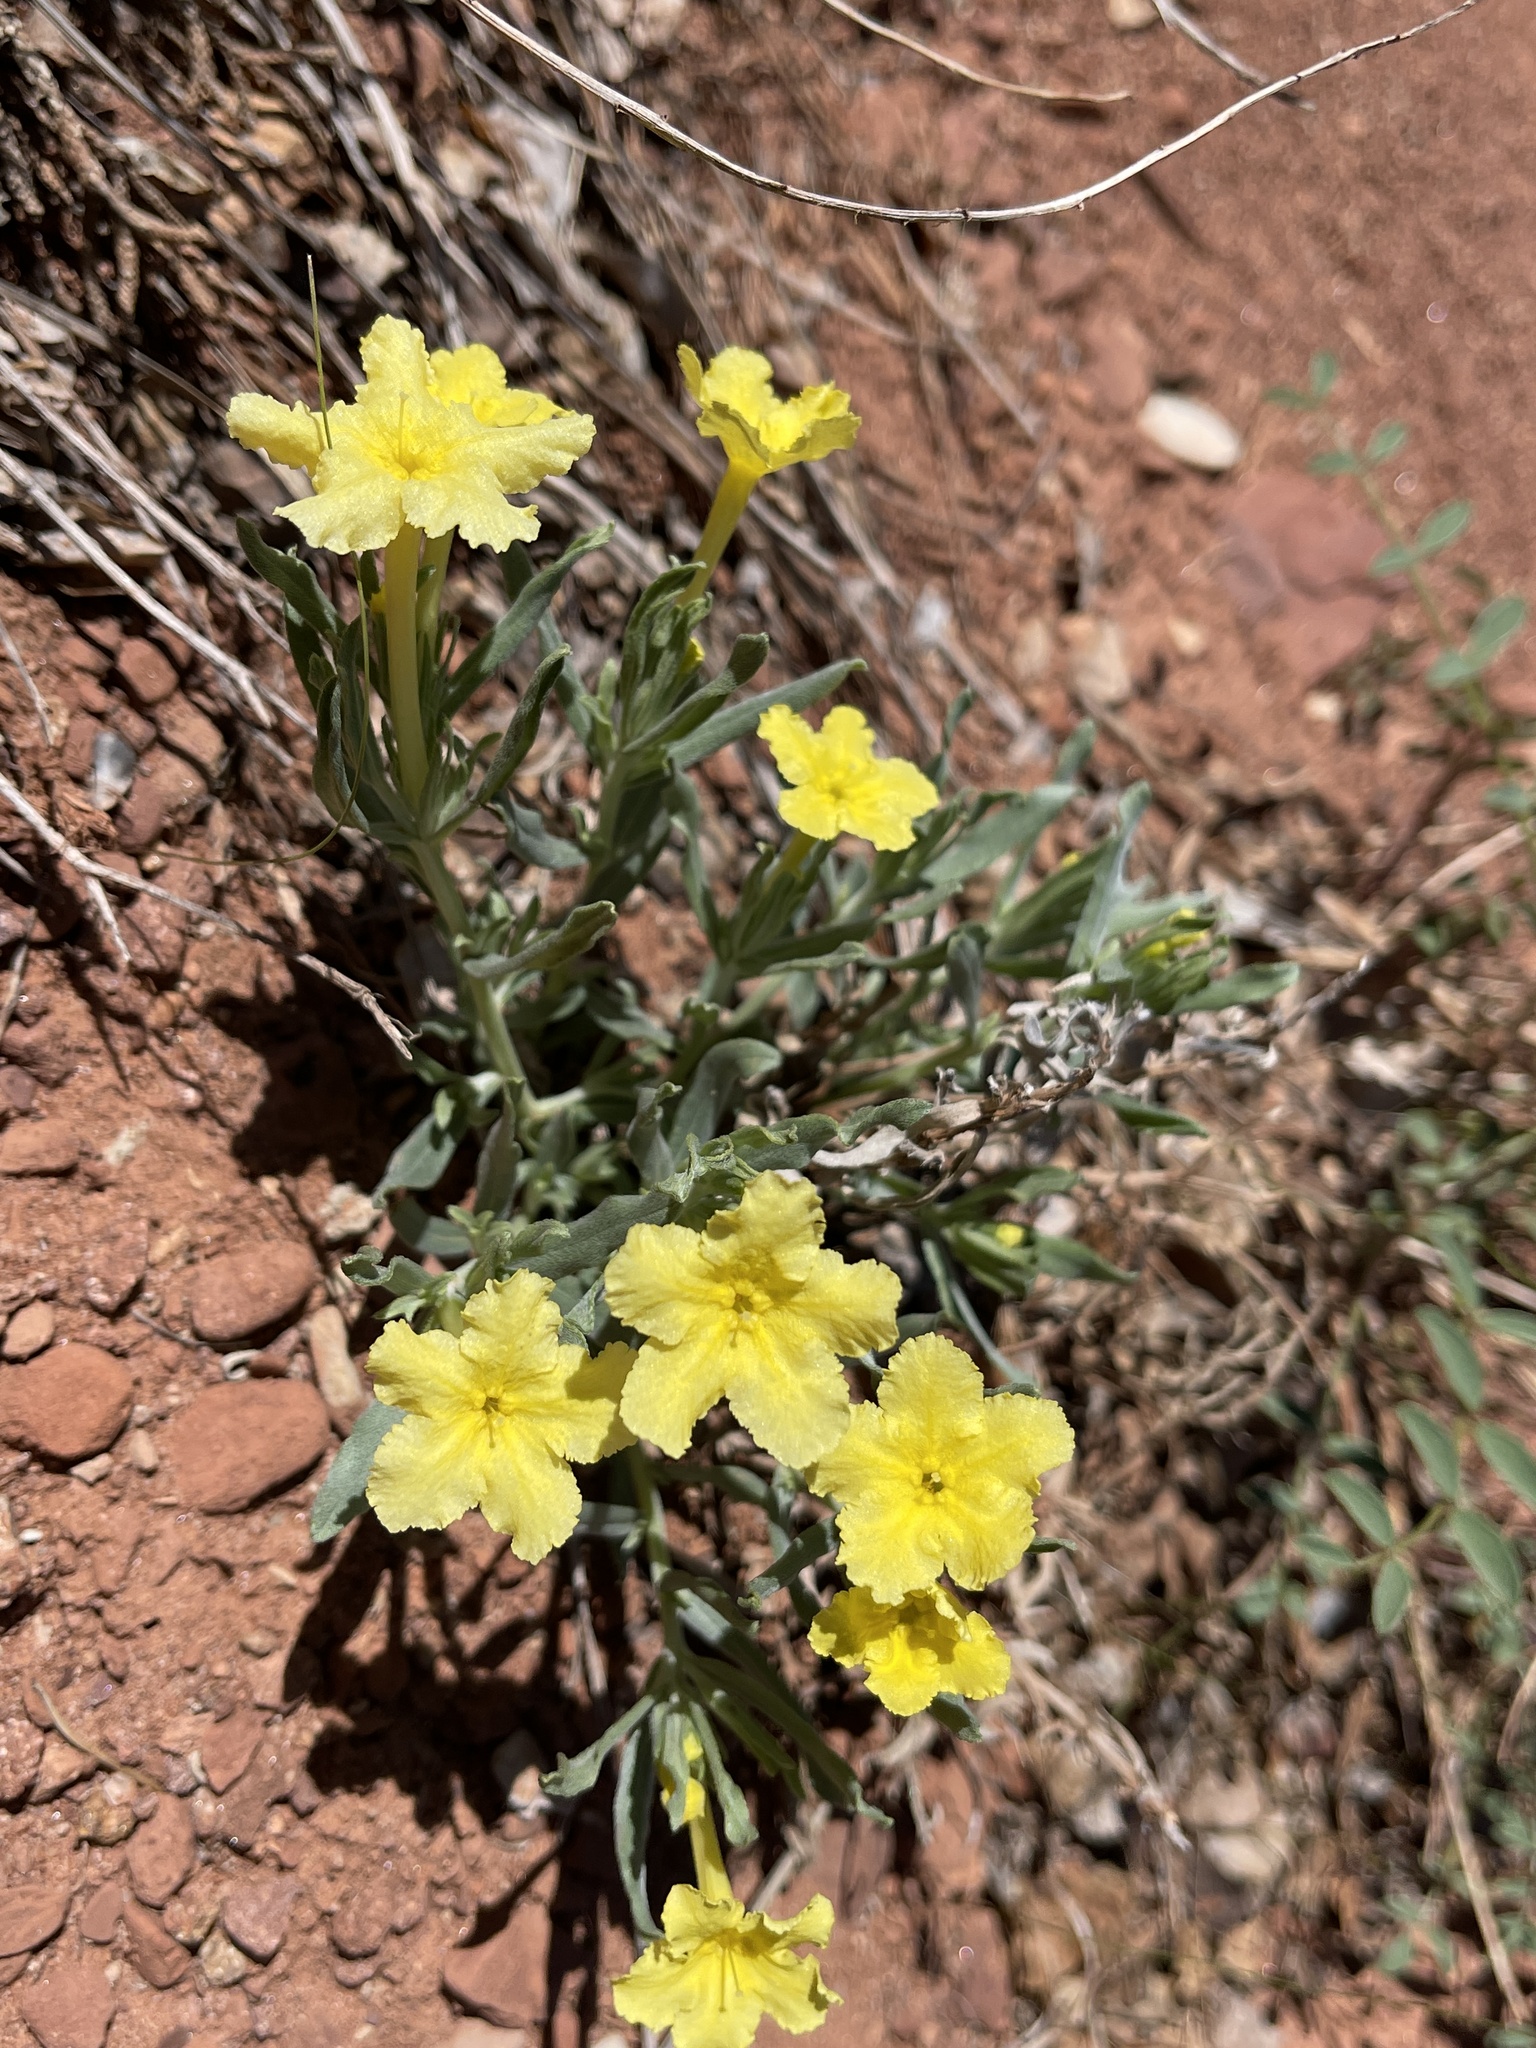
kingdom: Plantae
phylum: Tracheophyta
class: Magnoliopsida
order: Boraginales
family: Boraginaceae
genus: Lithospermum
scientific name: Lithospermum incisum
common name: Fringed gromwell
